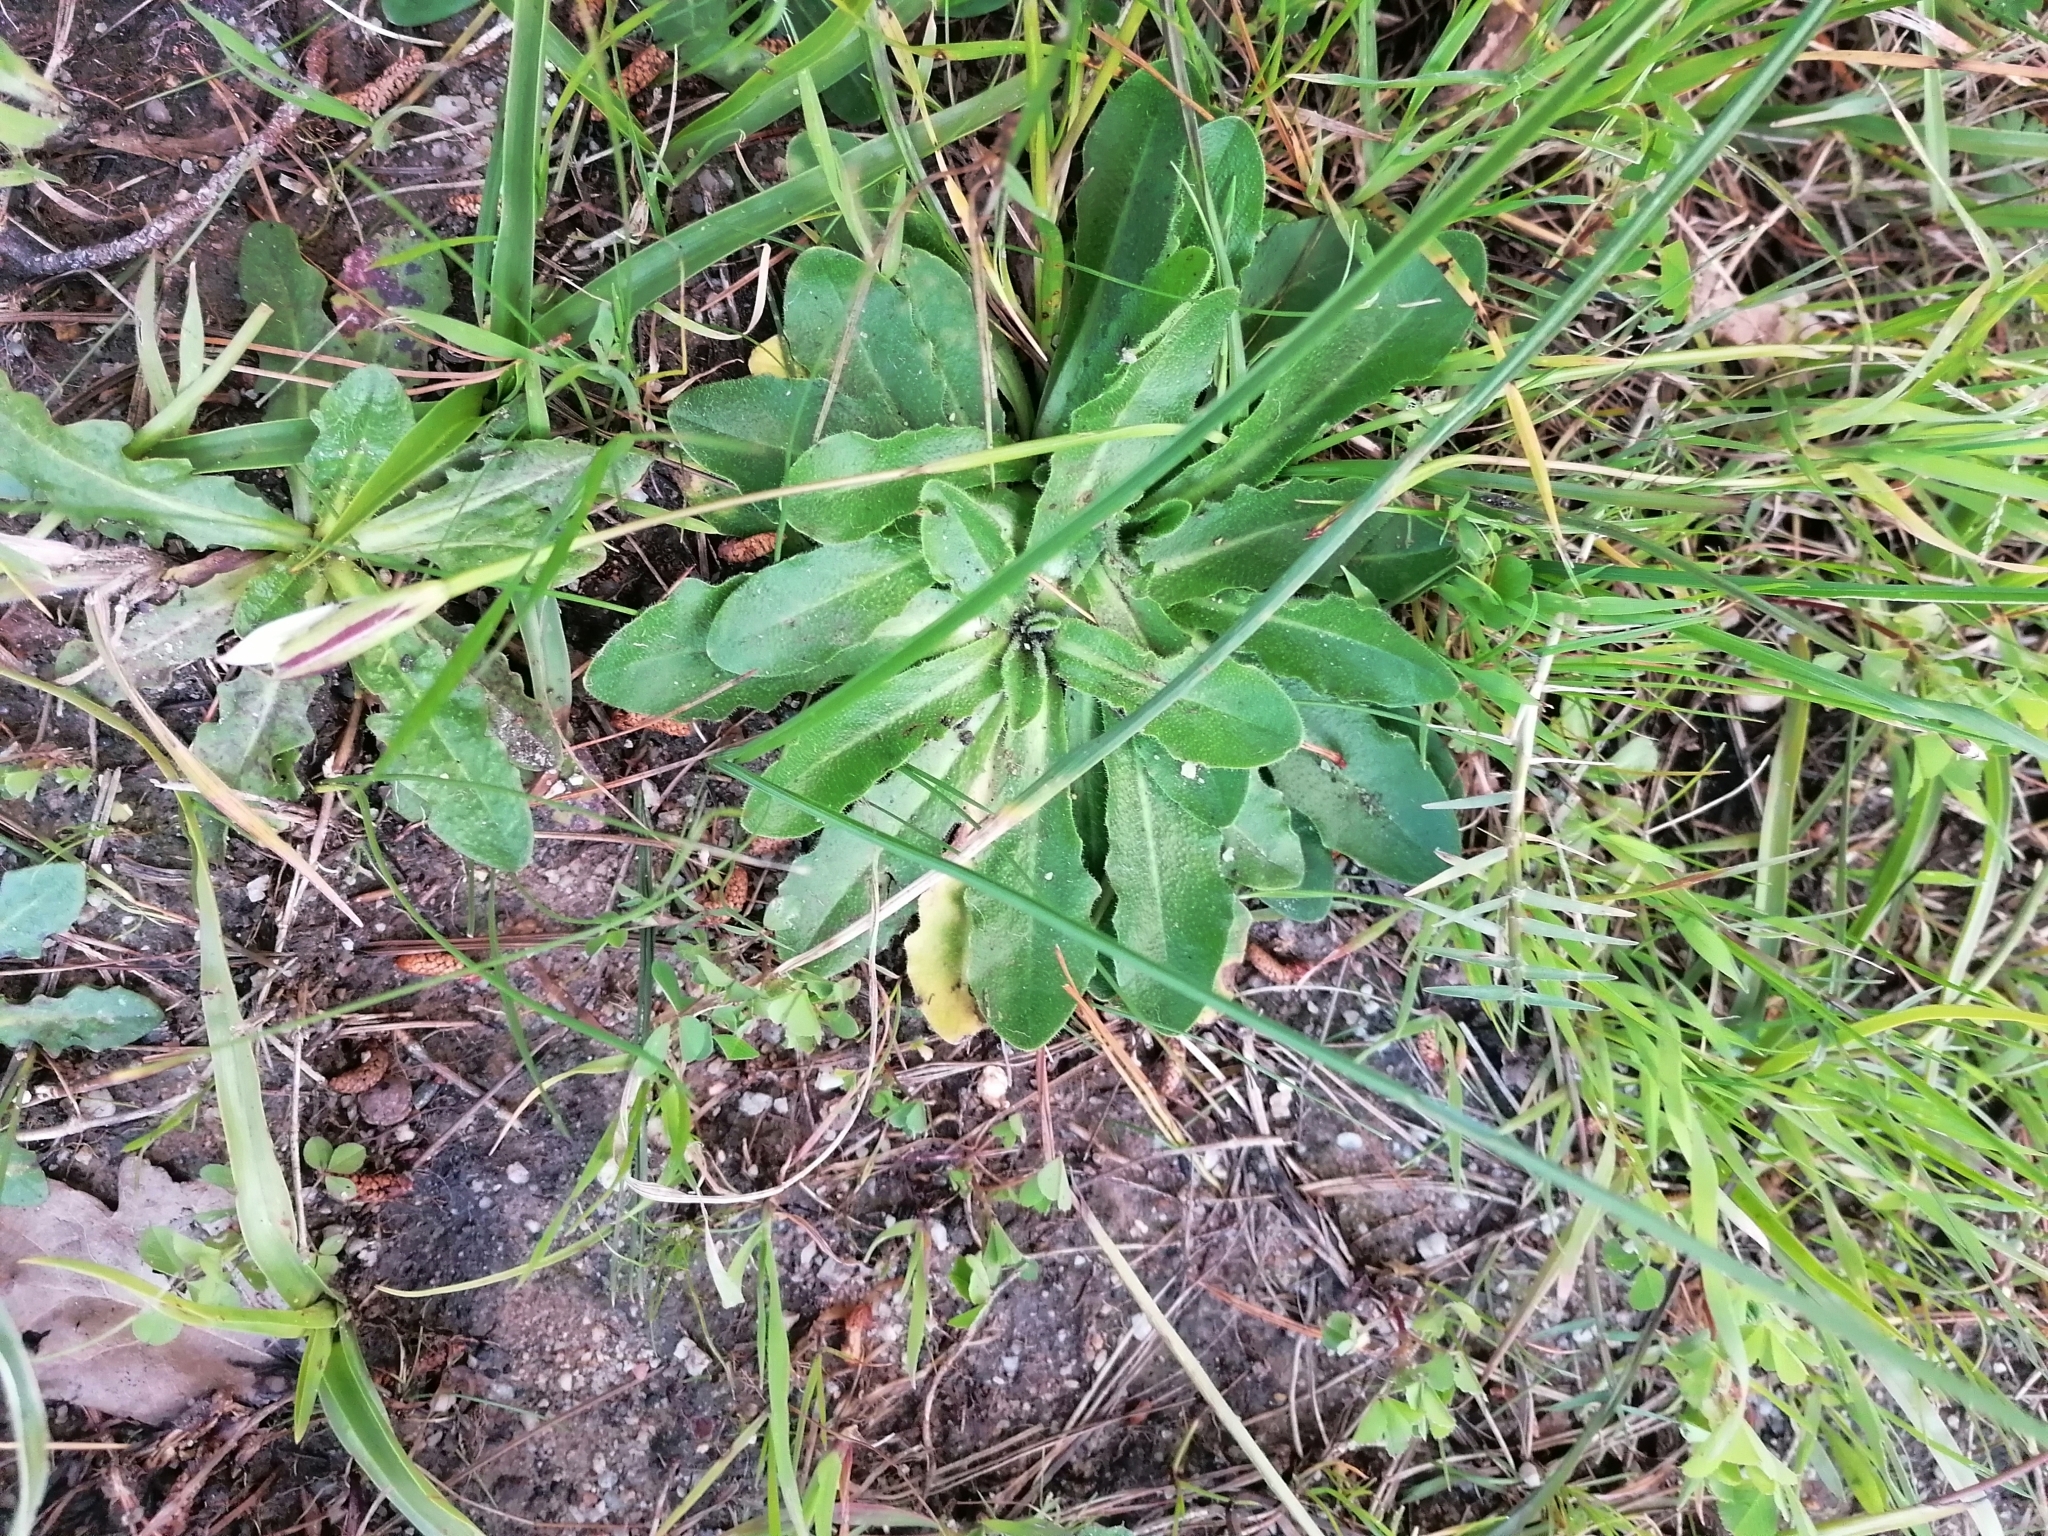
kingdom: Plantae
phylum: Tracheophyta
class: Liliopsida
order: Asparagales
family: Hypoxidaceae
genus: Pauridia
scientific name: Pauridia capensis
